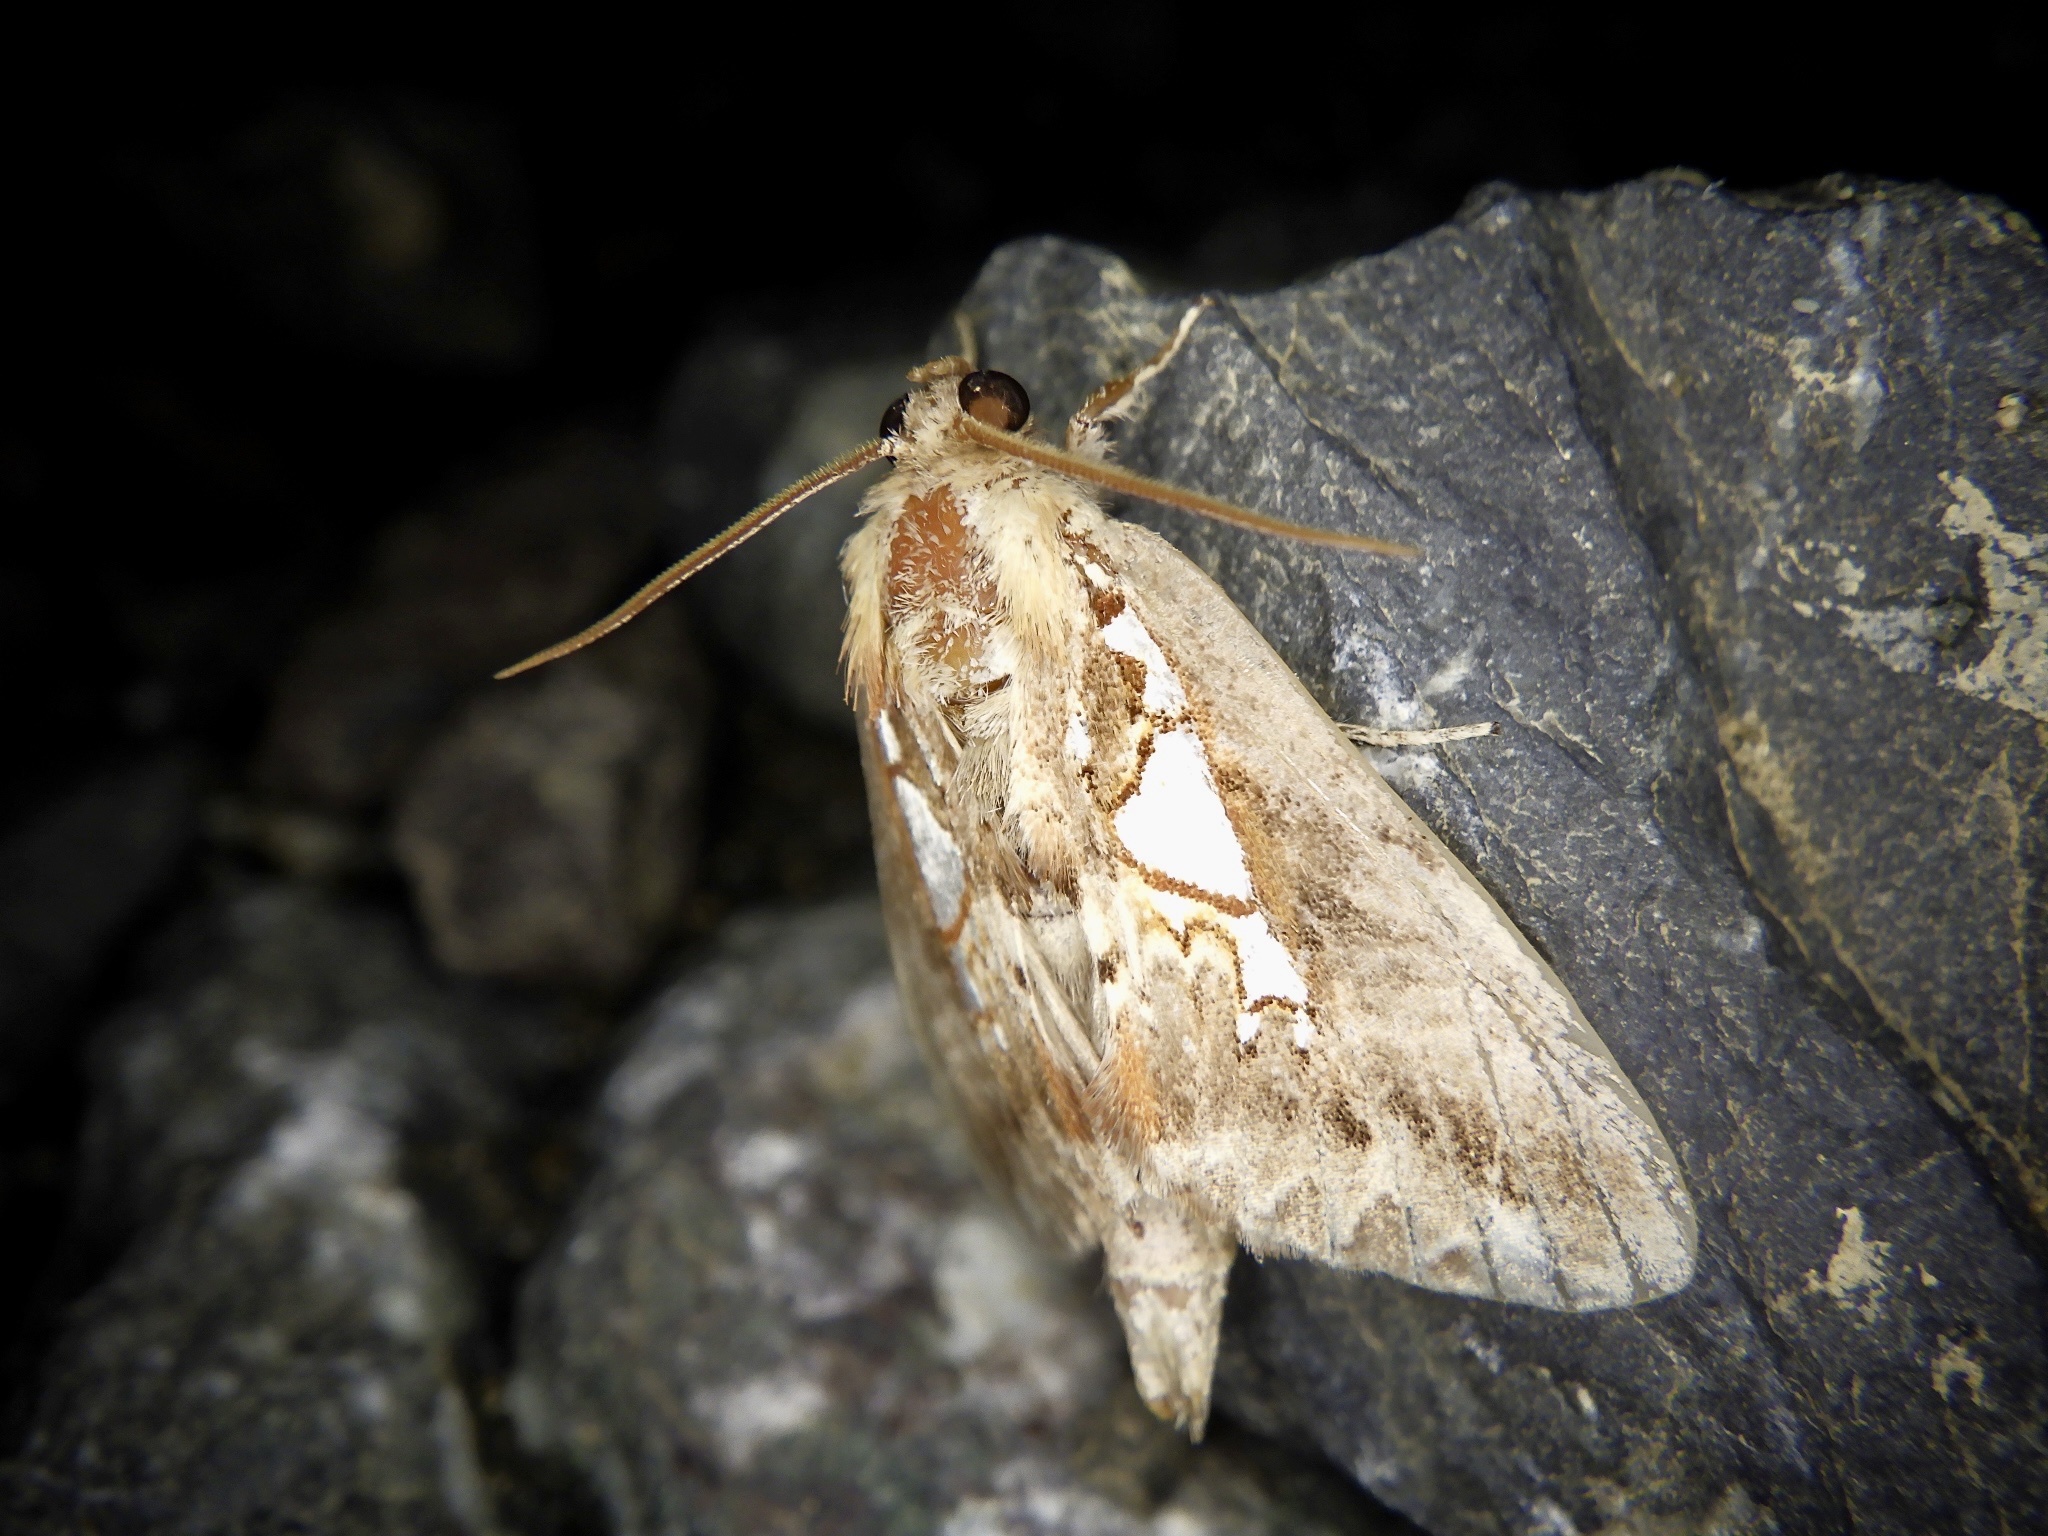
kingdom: Animalia
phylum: Arthropoda
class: Insecta
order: Lepidoptera
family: Notodontidae
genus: Spatalia
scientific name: Spatalia doerriesi
